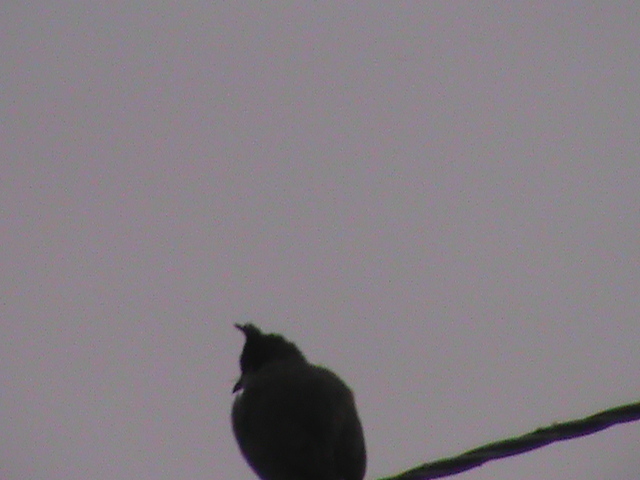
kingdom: Animalia
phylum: Chordata
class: Aves
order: Passeriformes
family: Pycnonotidae
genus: Pycnonotus
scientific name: Pycnonotus jocosus
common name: Red-whiskered bulbul
